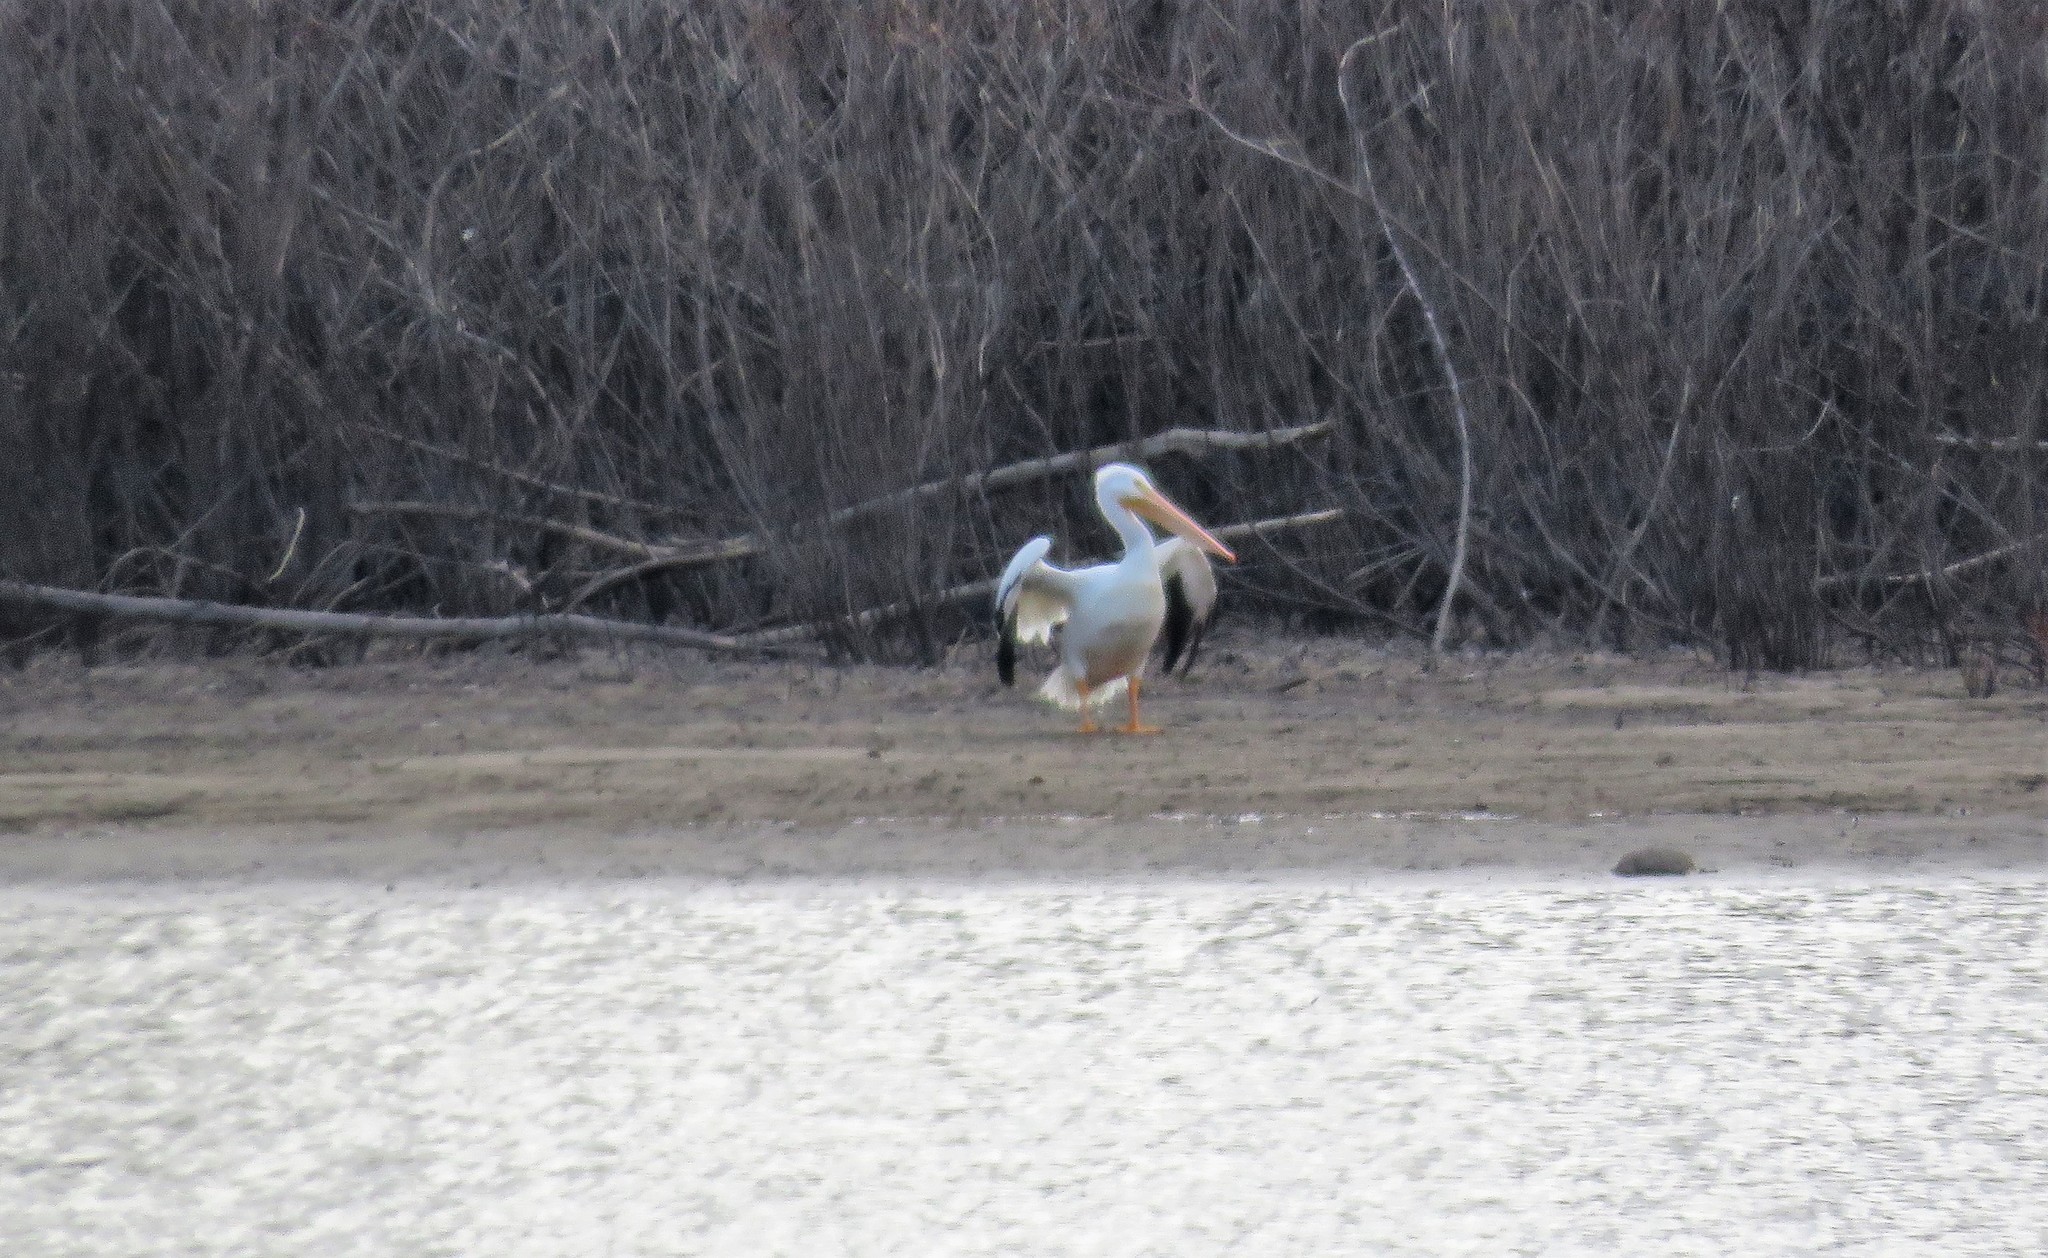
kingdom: Animalia
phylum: Chordata
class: Aves
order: Pelecaniformes
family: Pelecanidae
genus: Pelecanus
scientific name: Pelecanus erythrorhynchos
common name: American white pelican
